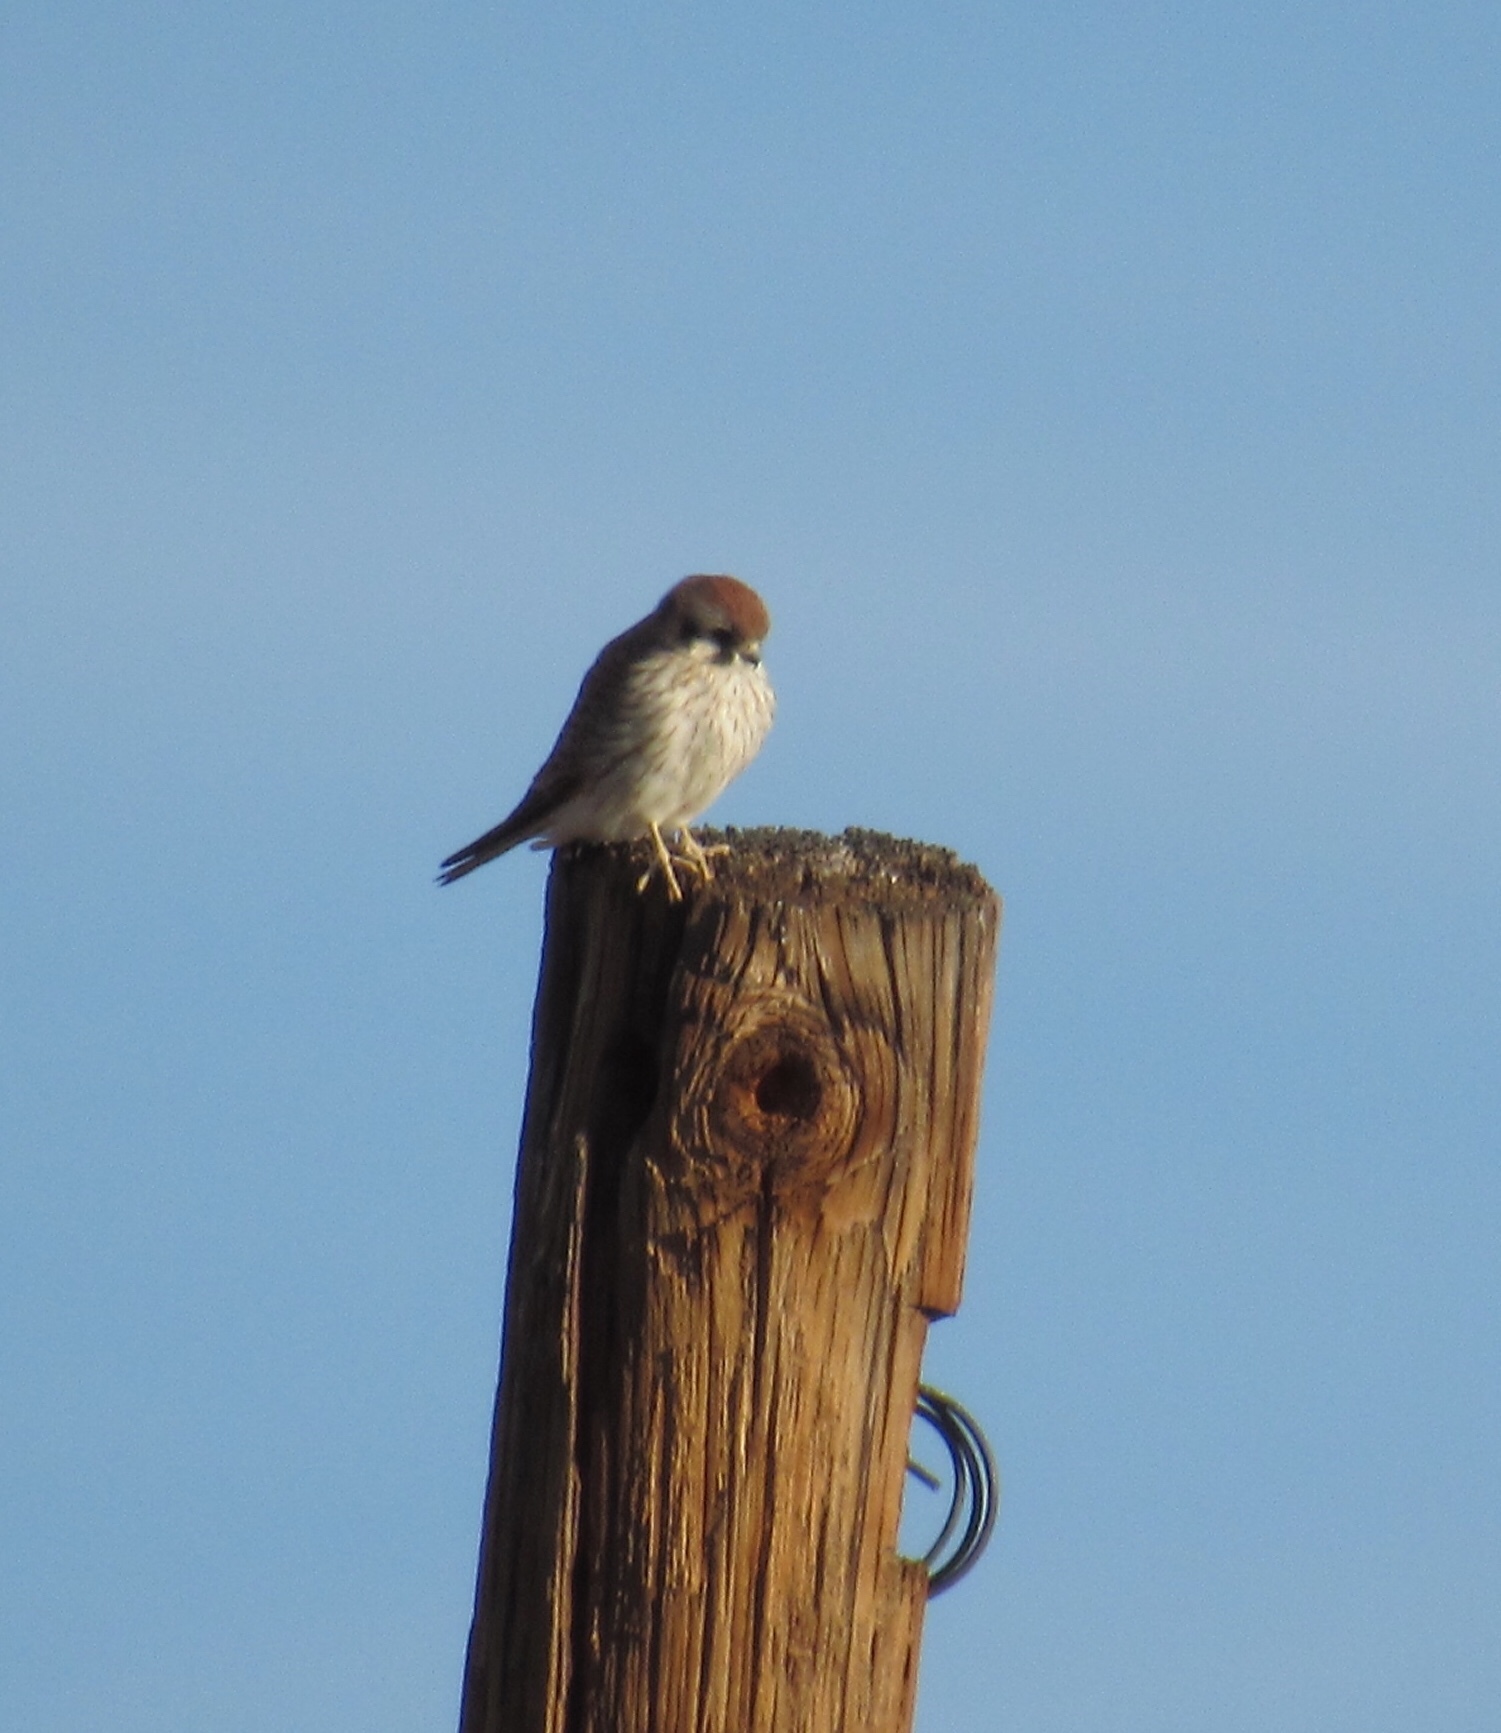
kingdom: Animalia
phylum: Chordata
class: Aves
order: Falconiformes
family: Falconidae
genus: Falco
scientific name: Falco sparverius
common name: American kestrel
